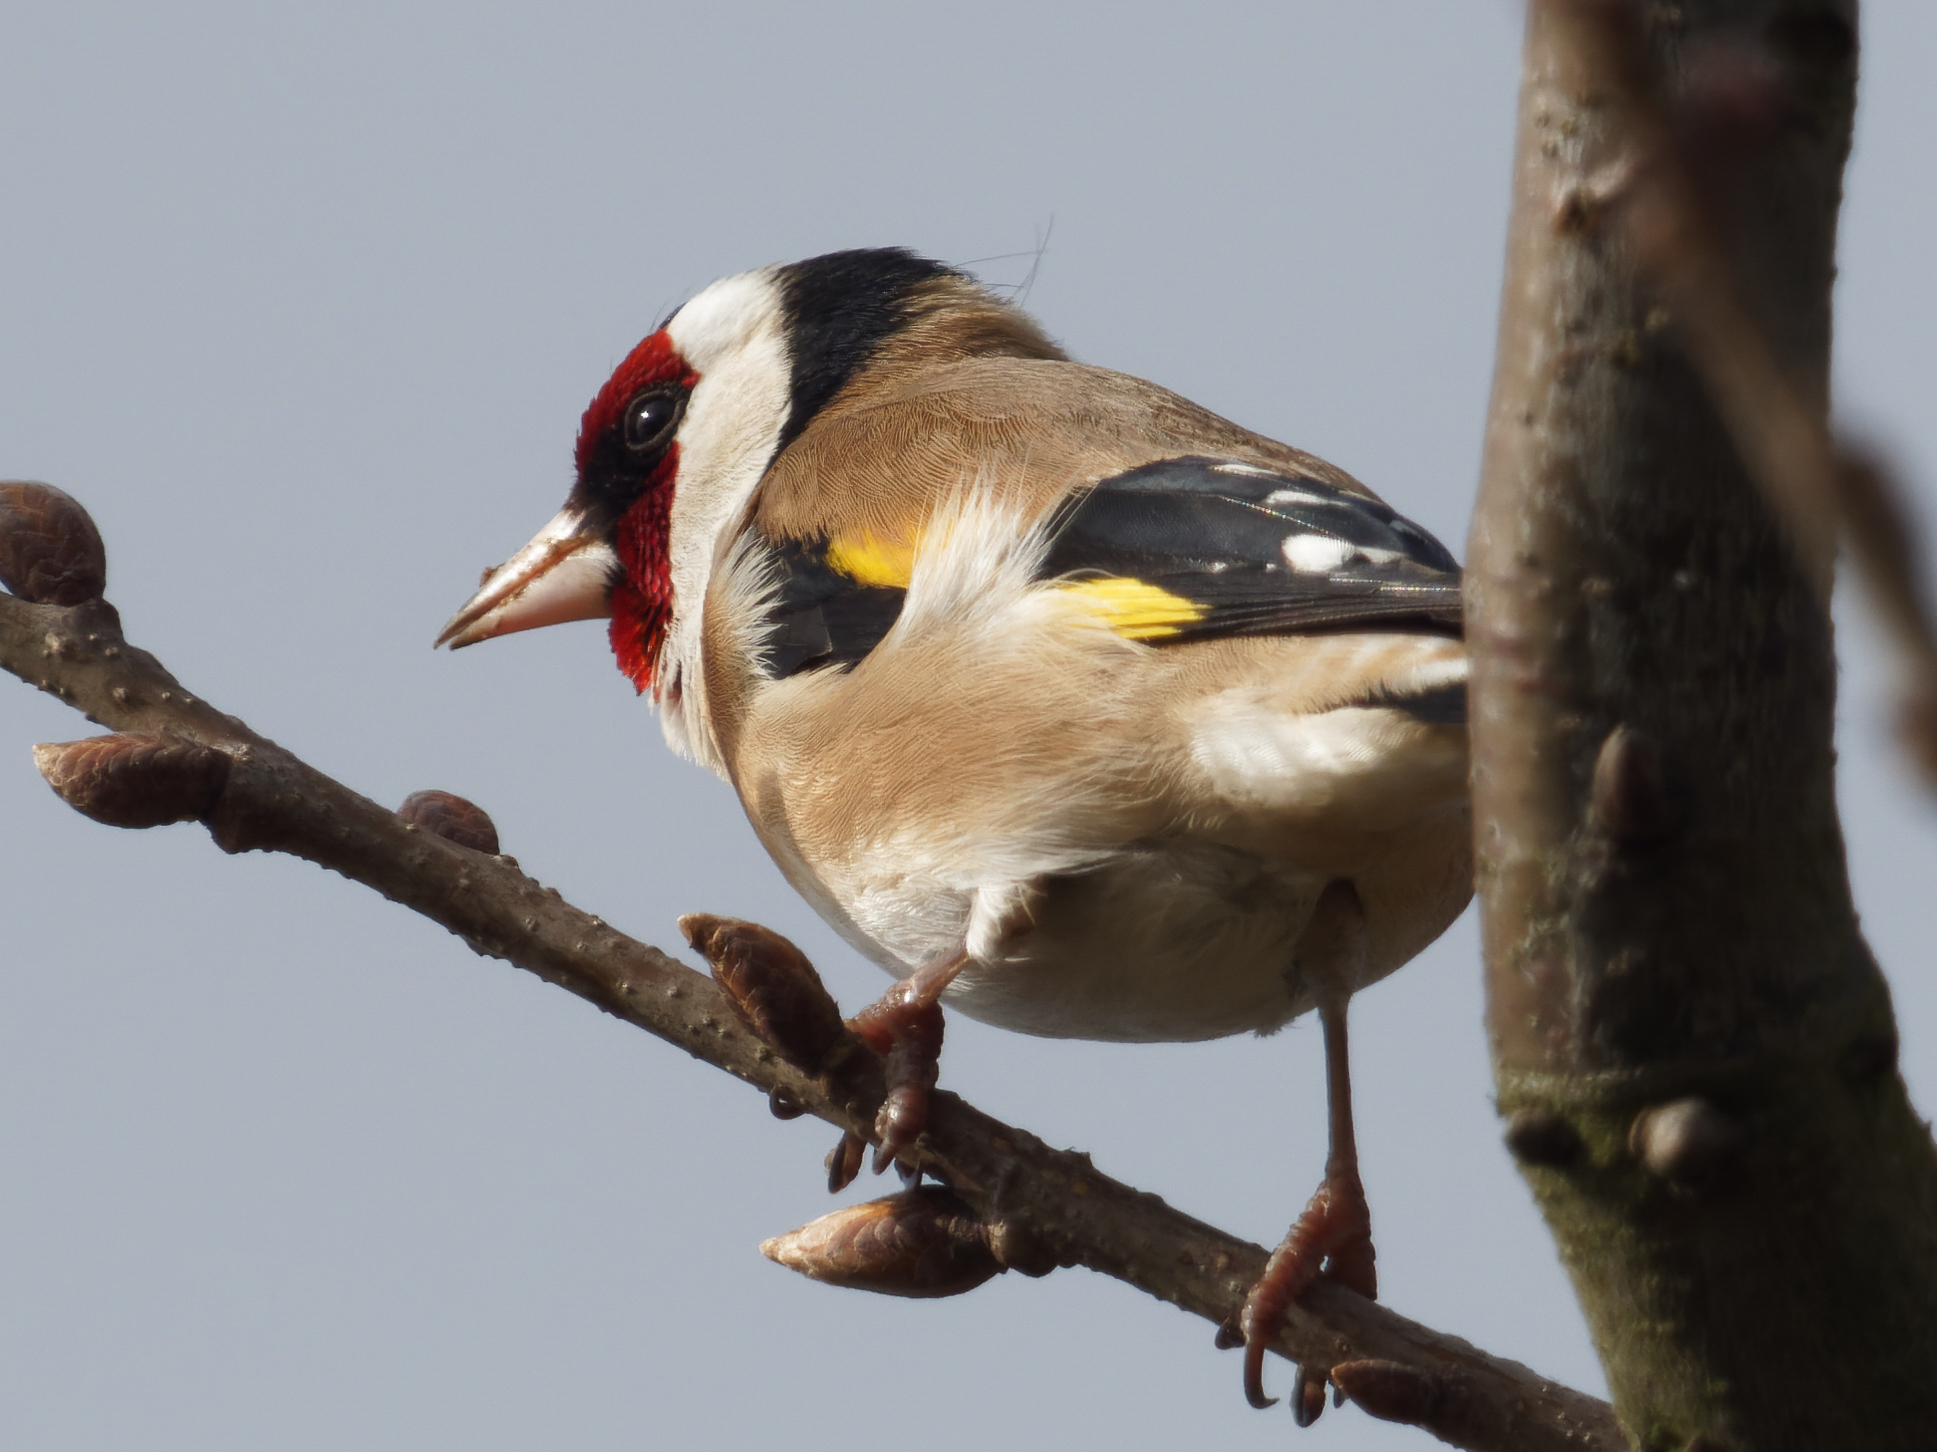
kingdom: Animalia
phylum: Chordata
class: Aves
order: Passeriformes
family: Fringillidae
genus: Carduelis
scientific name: Carduelis carduelis
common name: European goldfinch
